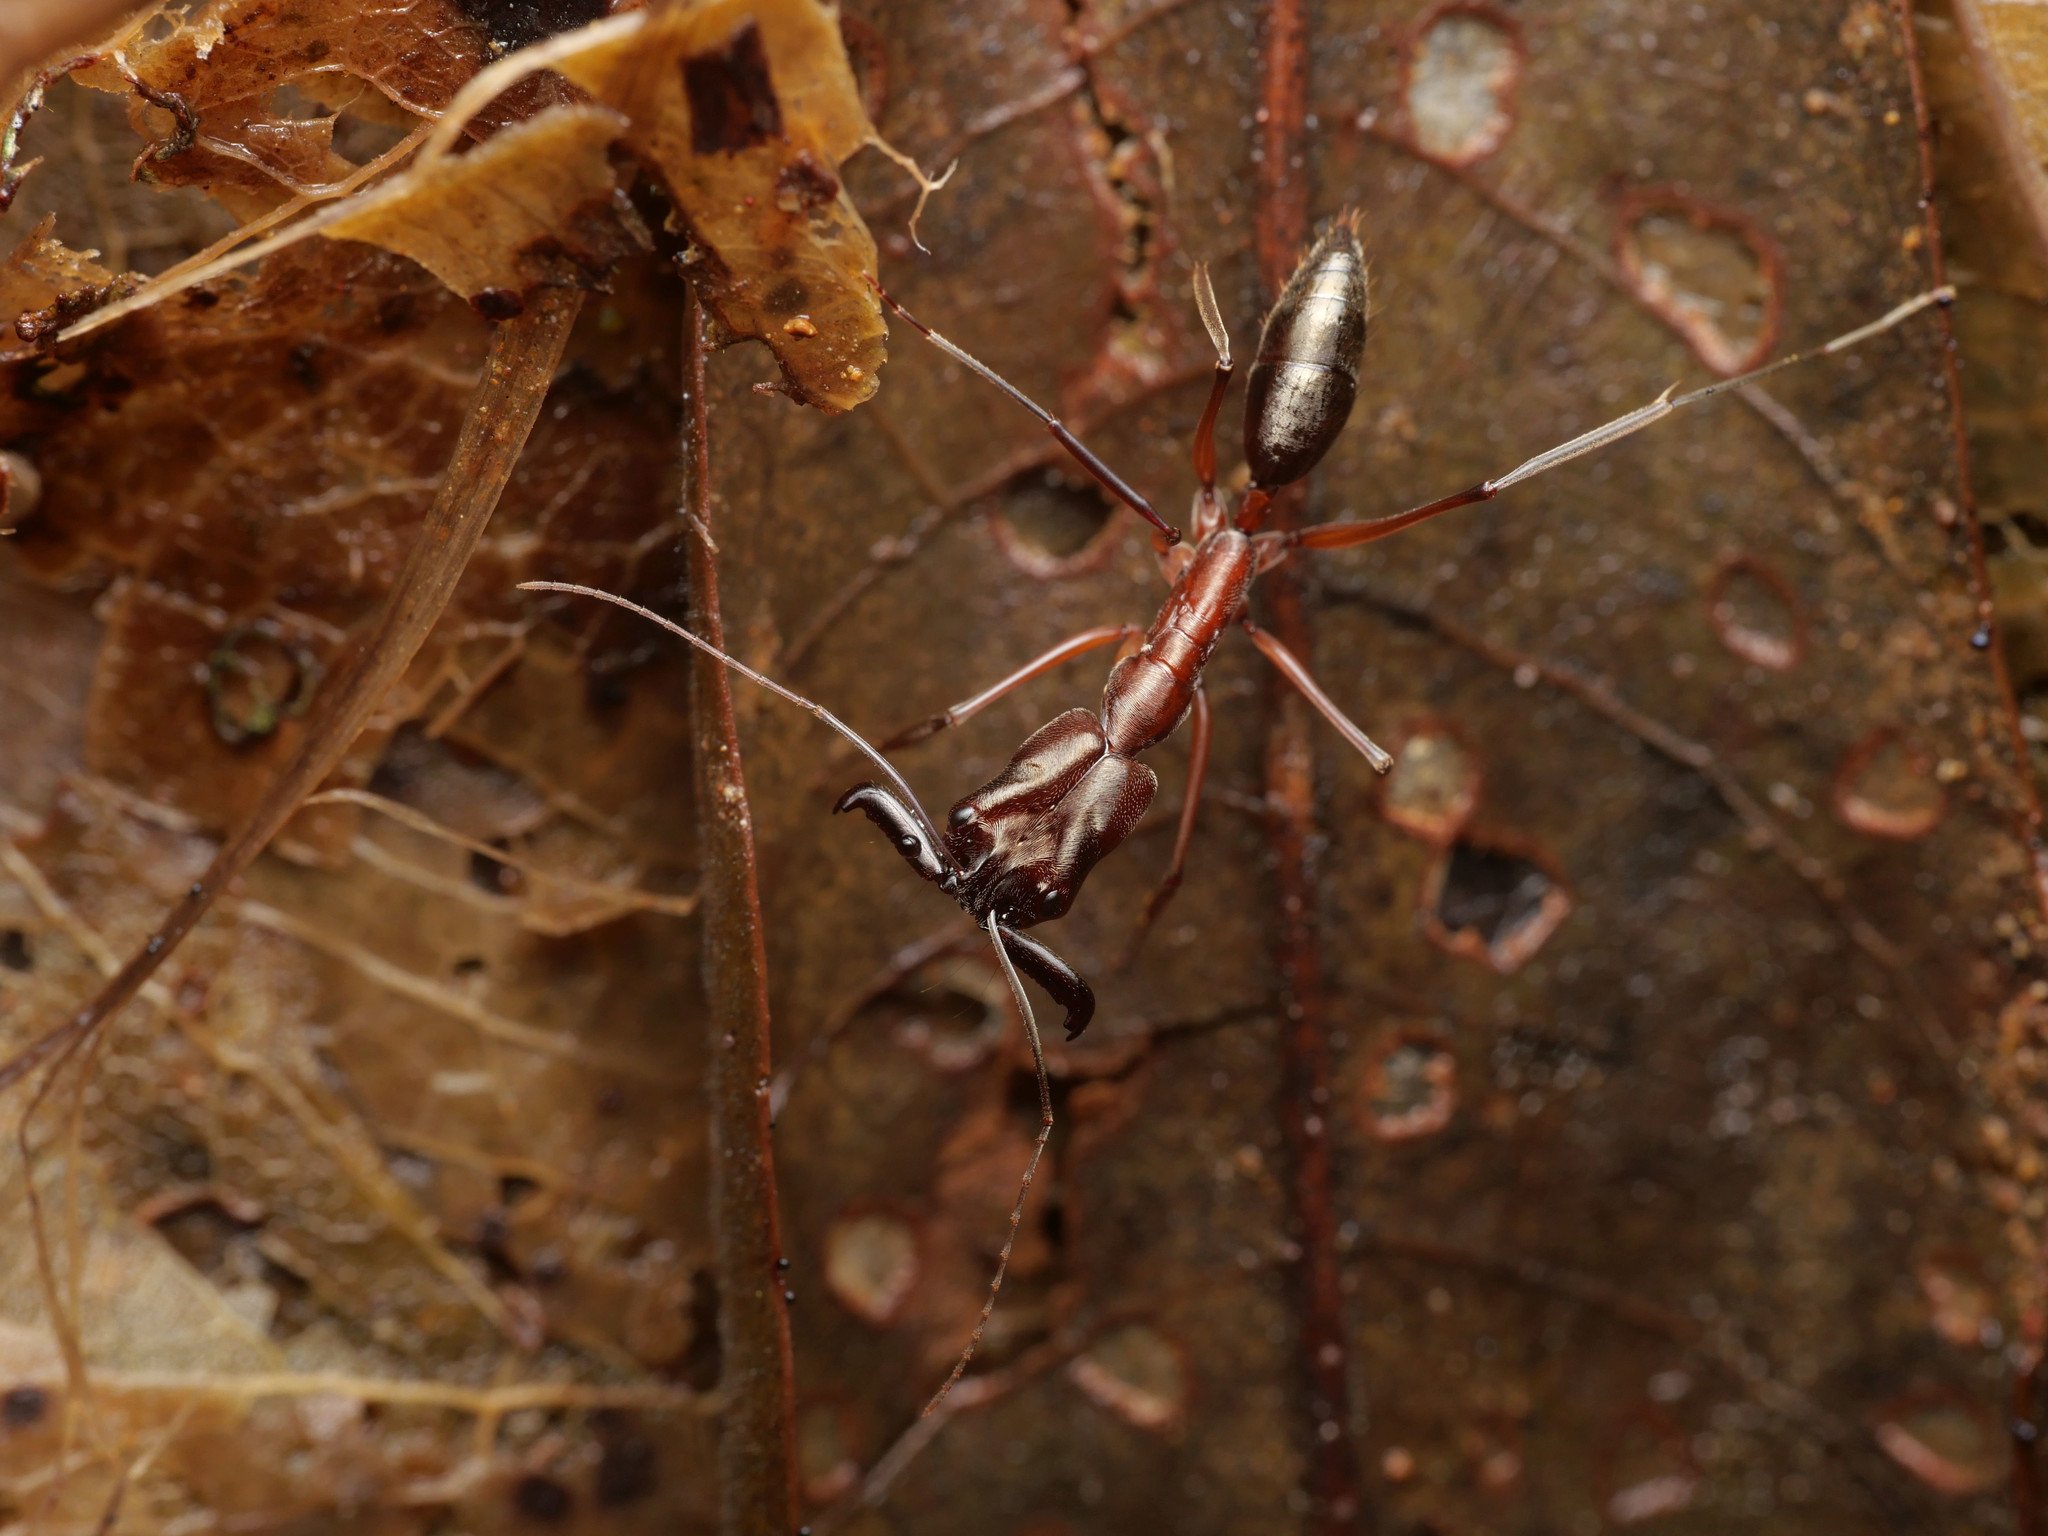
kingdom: Animalia
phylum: Arthropoda
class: Insecta
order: Hymenoptera
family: Formicidae
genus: Odontomachus
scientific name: Odontomachus chelifer
